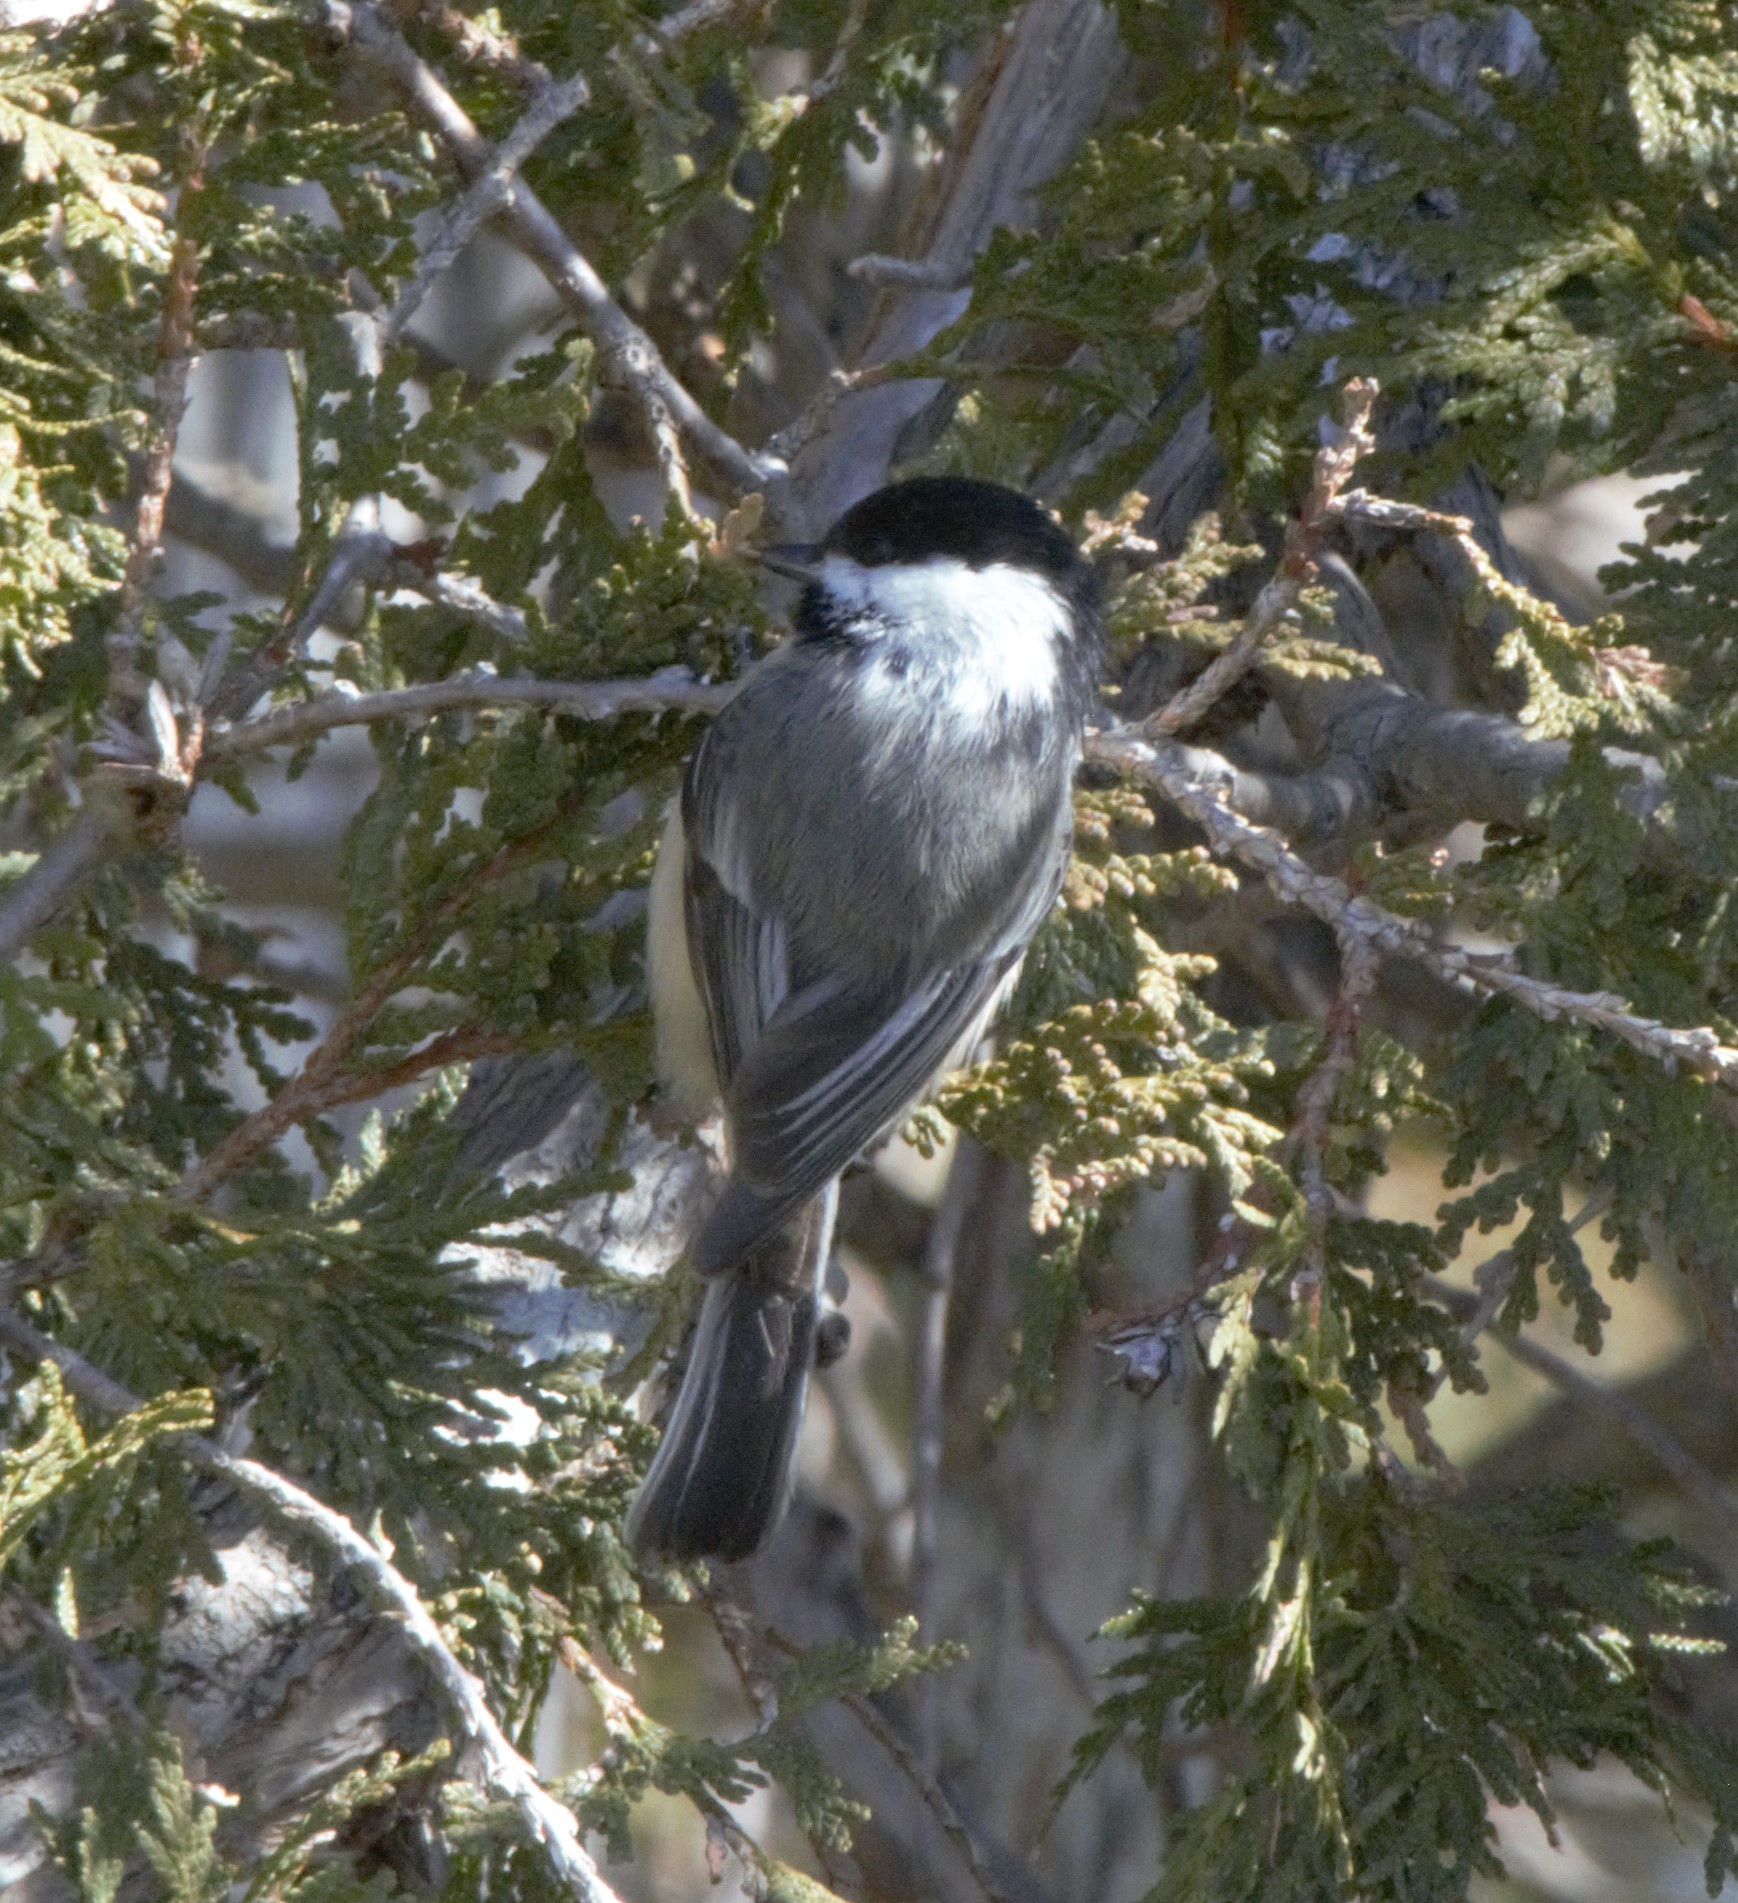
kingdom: Animalia
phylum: Chordata
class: Aves
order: Passeriformes
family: Paridae
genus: Poecile
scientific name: Poecile atricapillus
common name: Black-capped chickadee
